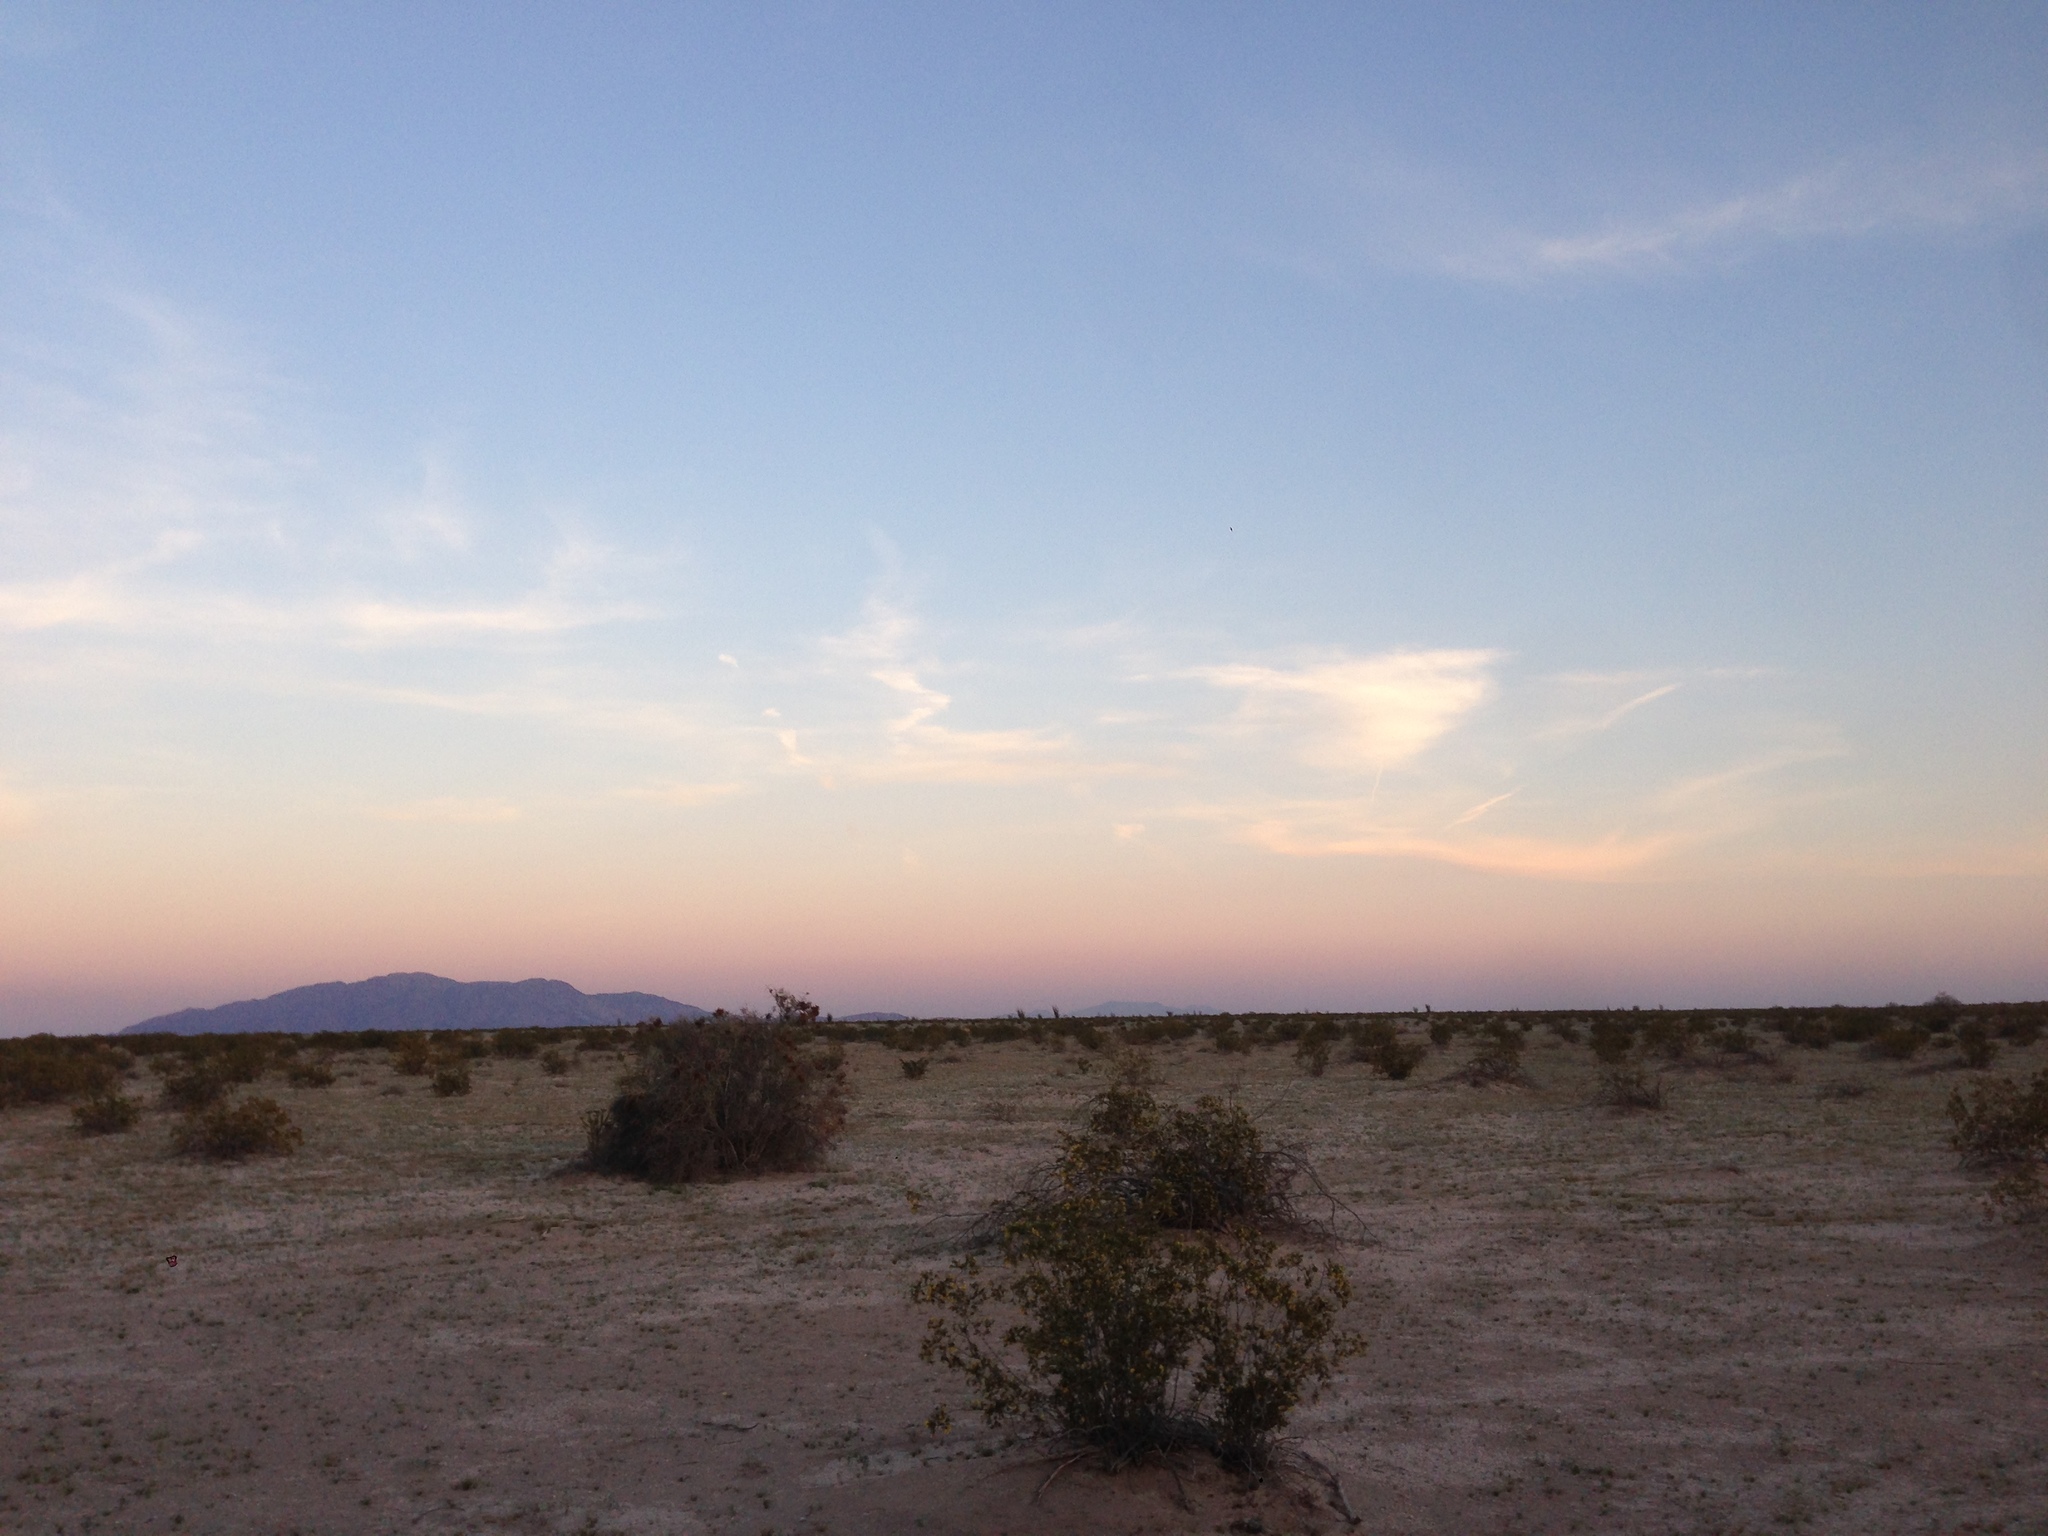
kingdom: Plantae
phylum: Tracheophyta
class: Magnoliopsida
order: Zygophyllales
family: Zygophyllaceae
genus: Larrea
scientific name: Larrea tridentata
